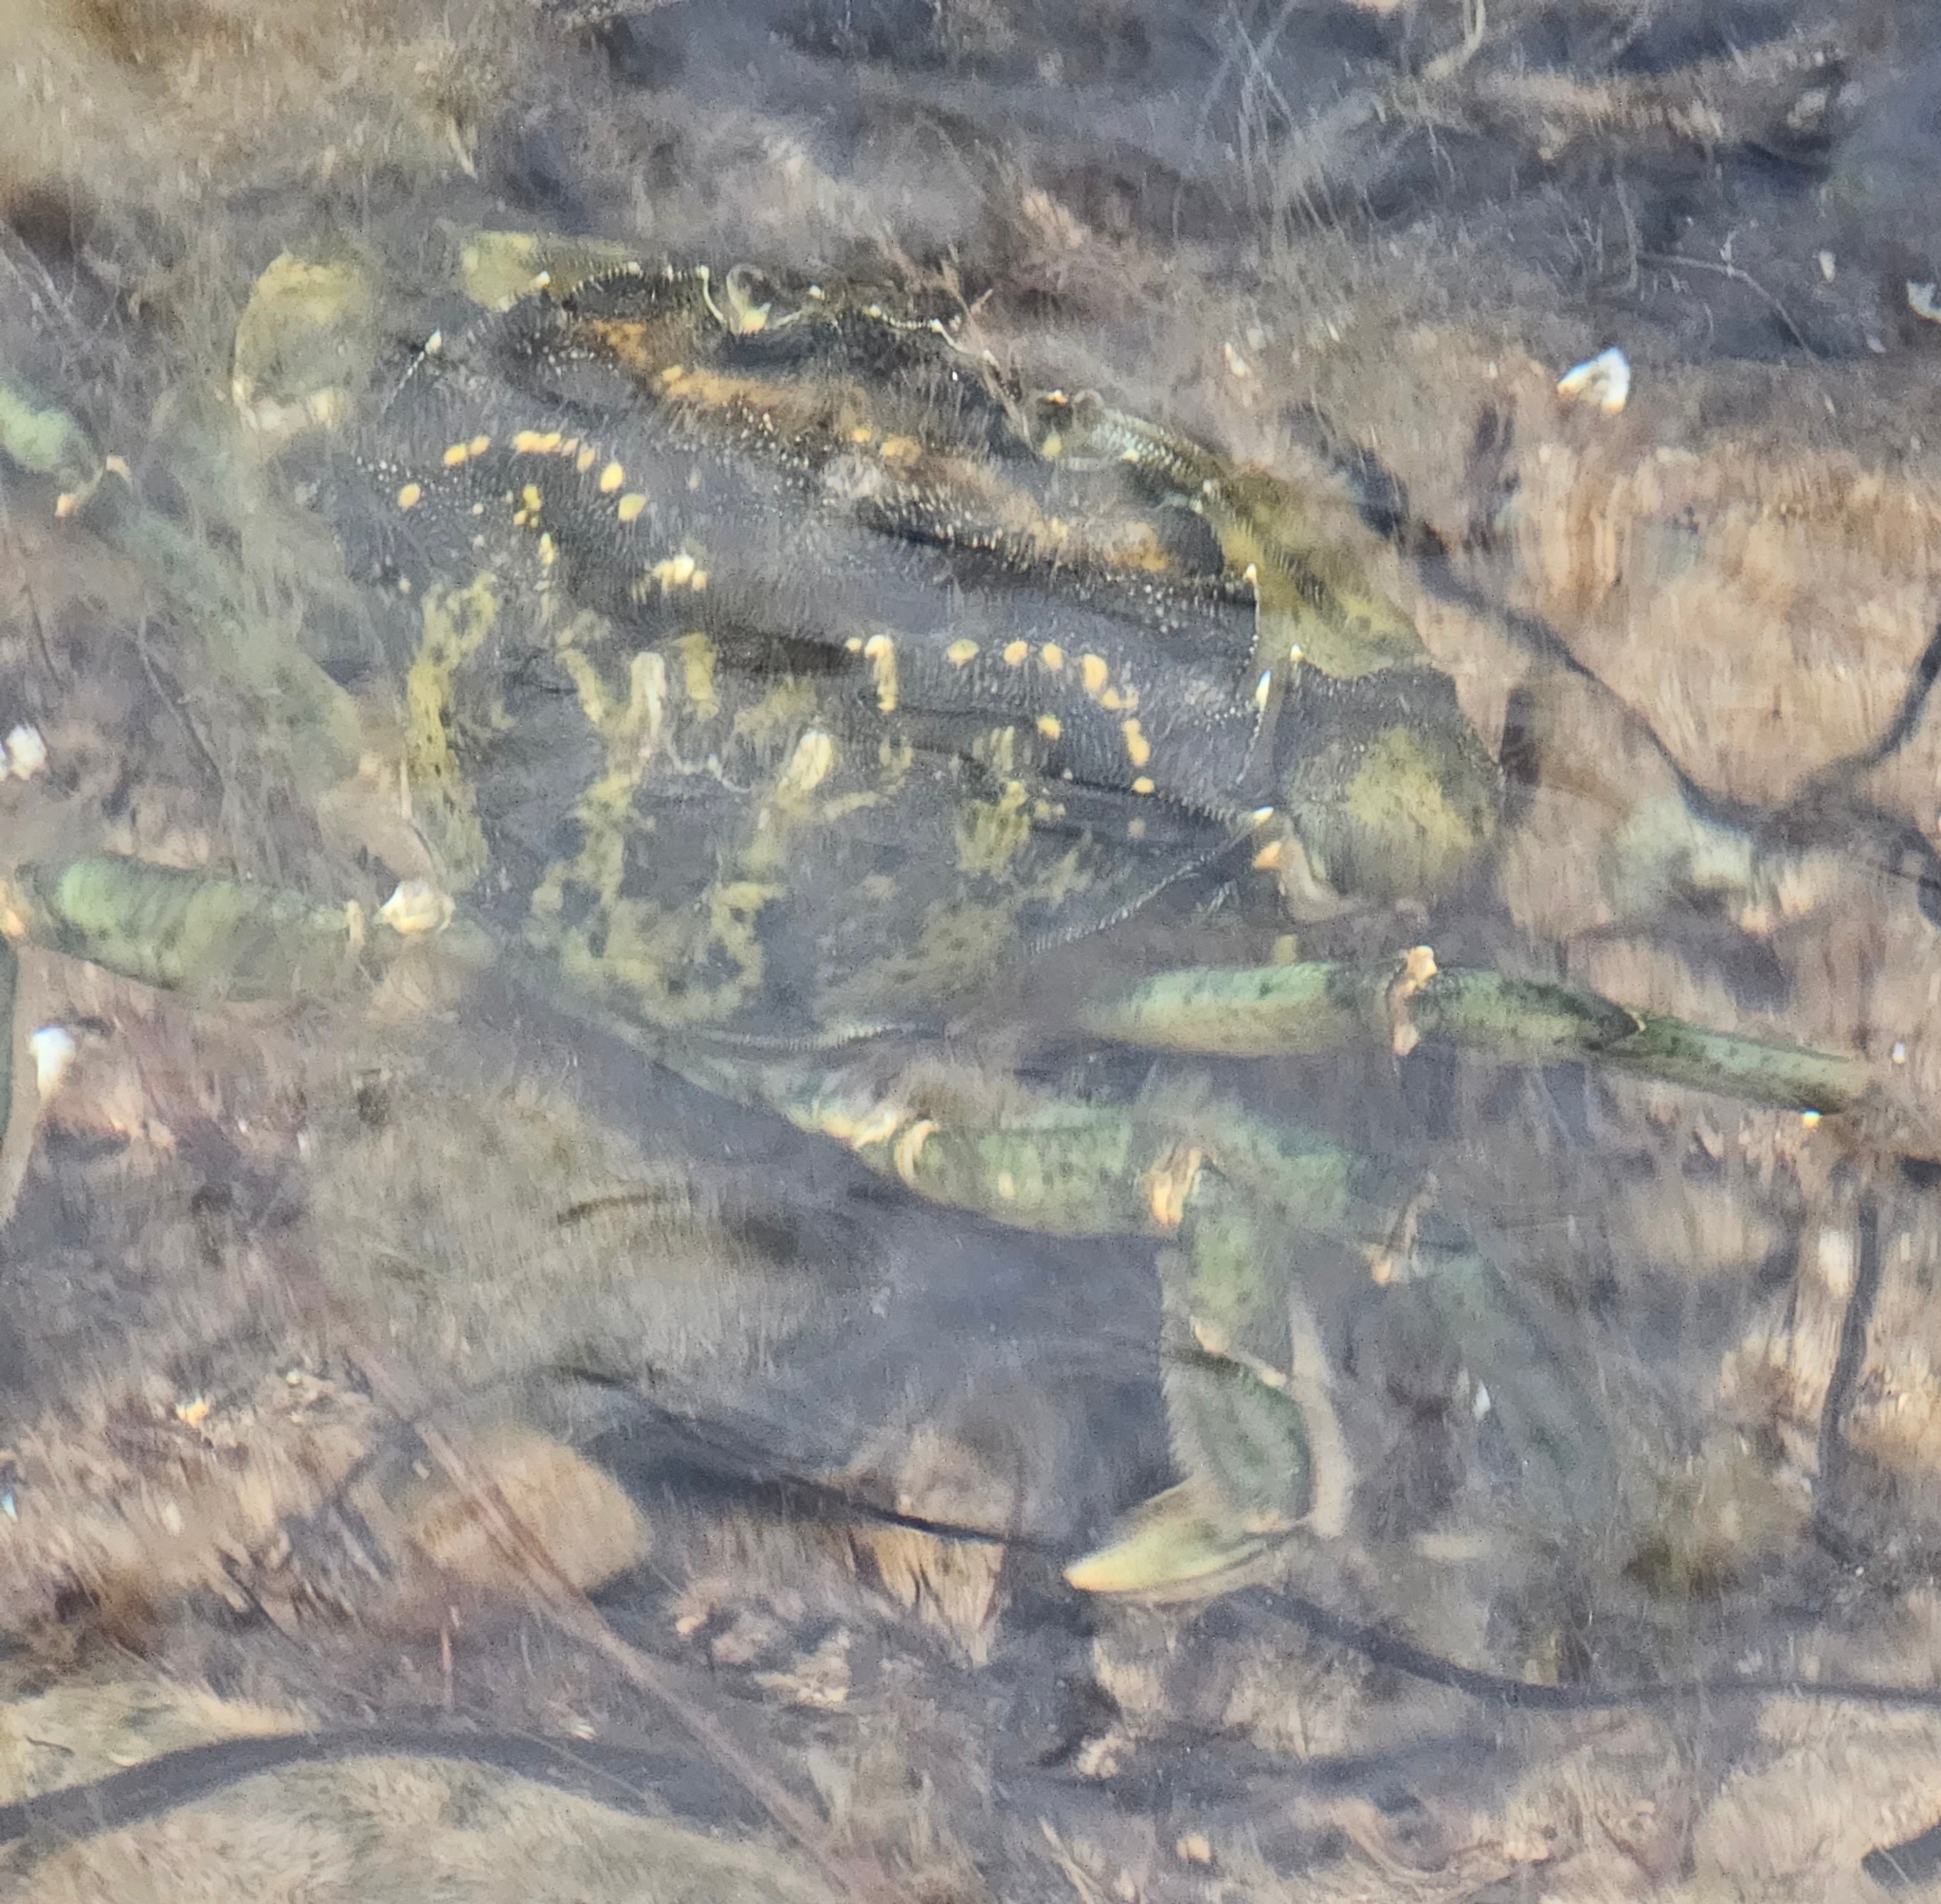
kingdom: Animalia
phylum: Arthropoda
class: Malacostraca
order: Decapoda
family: Carcinidae
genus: Carcinus
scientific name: Carcinus maenas
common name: European green crab
